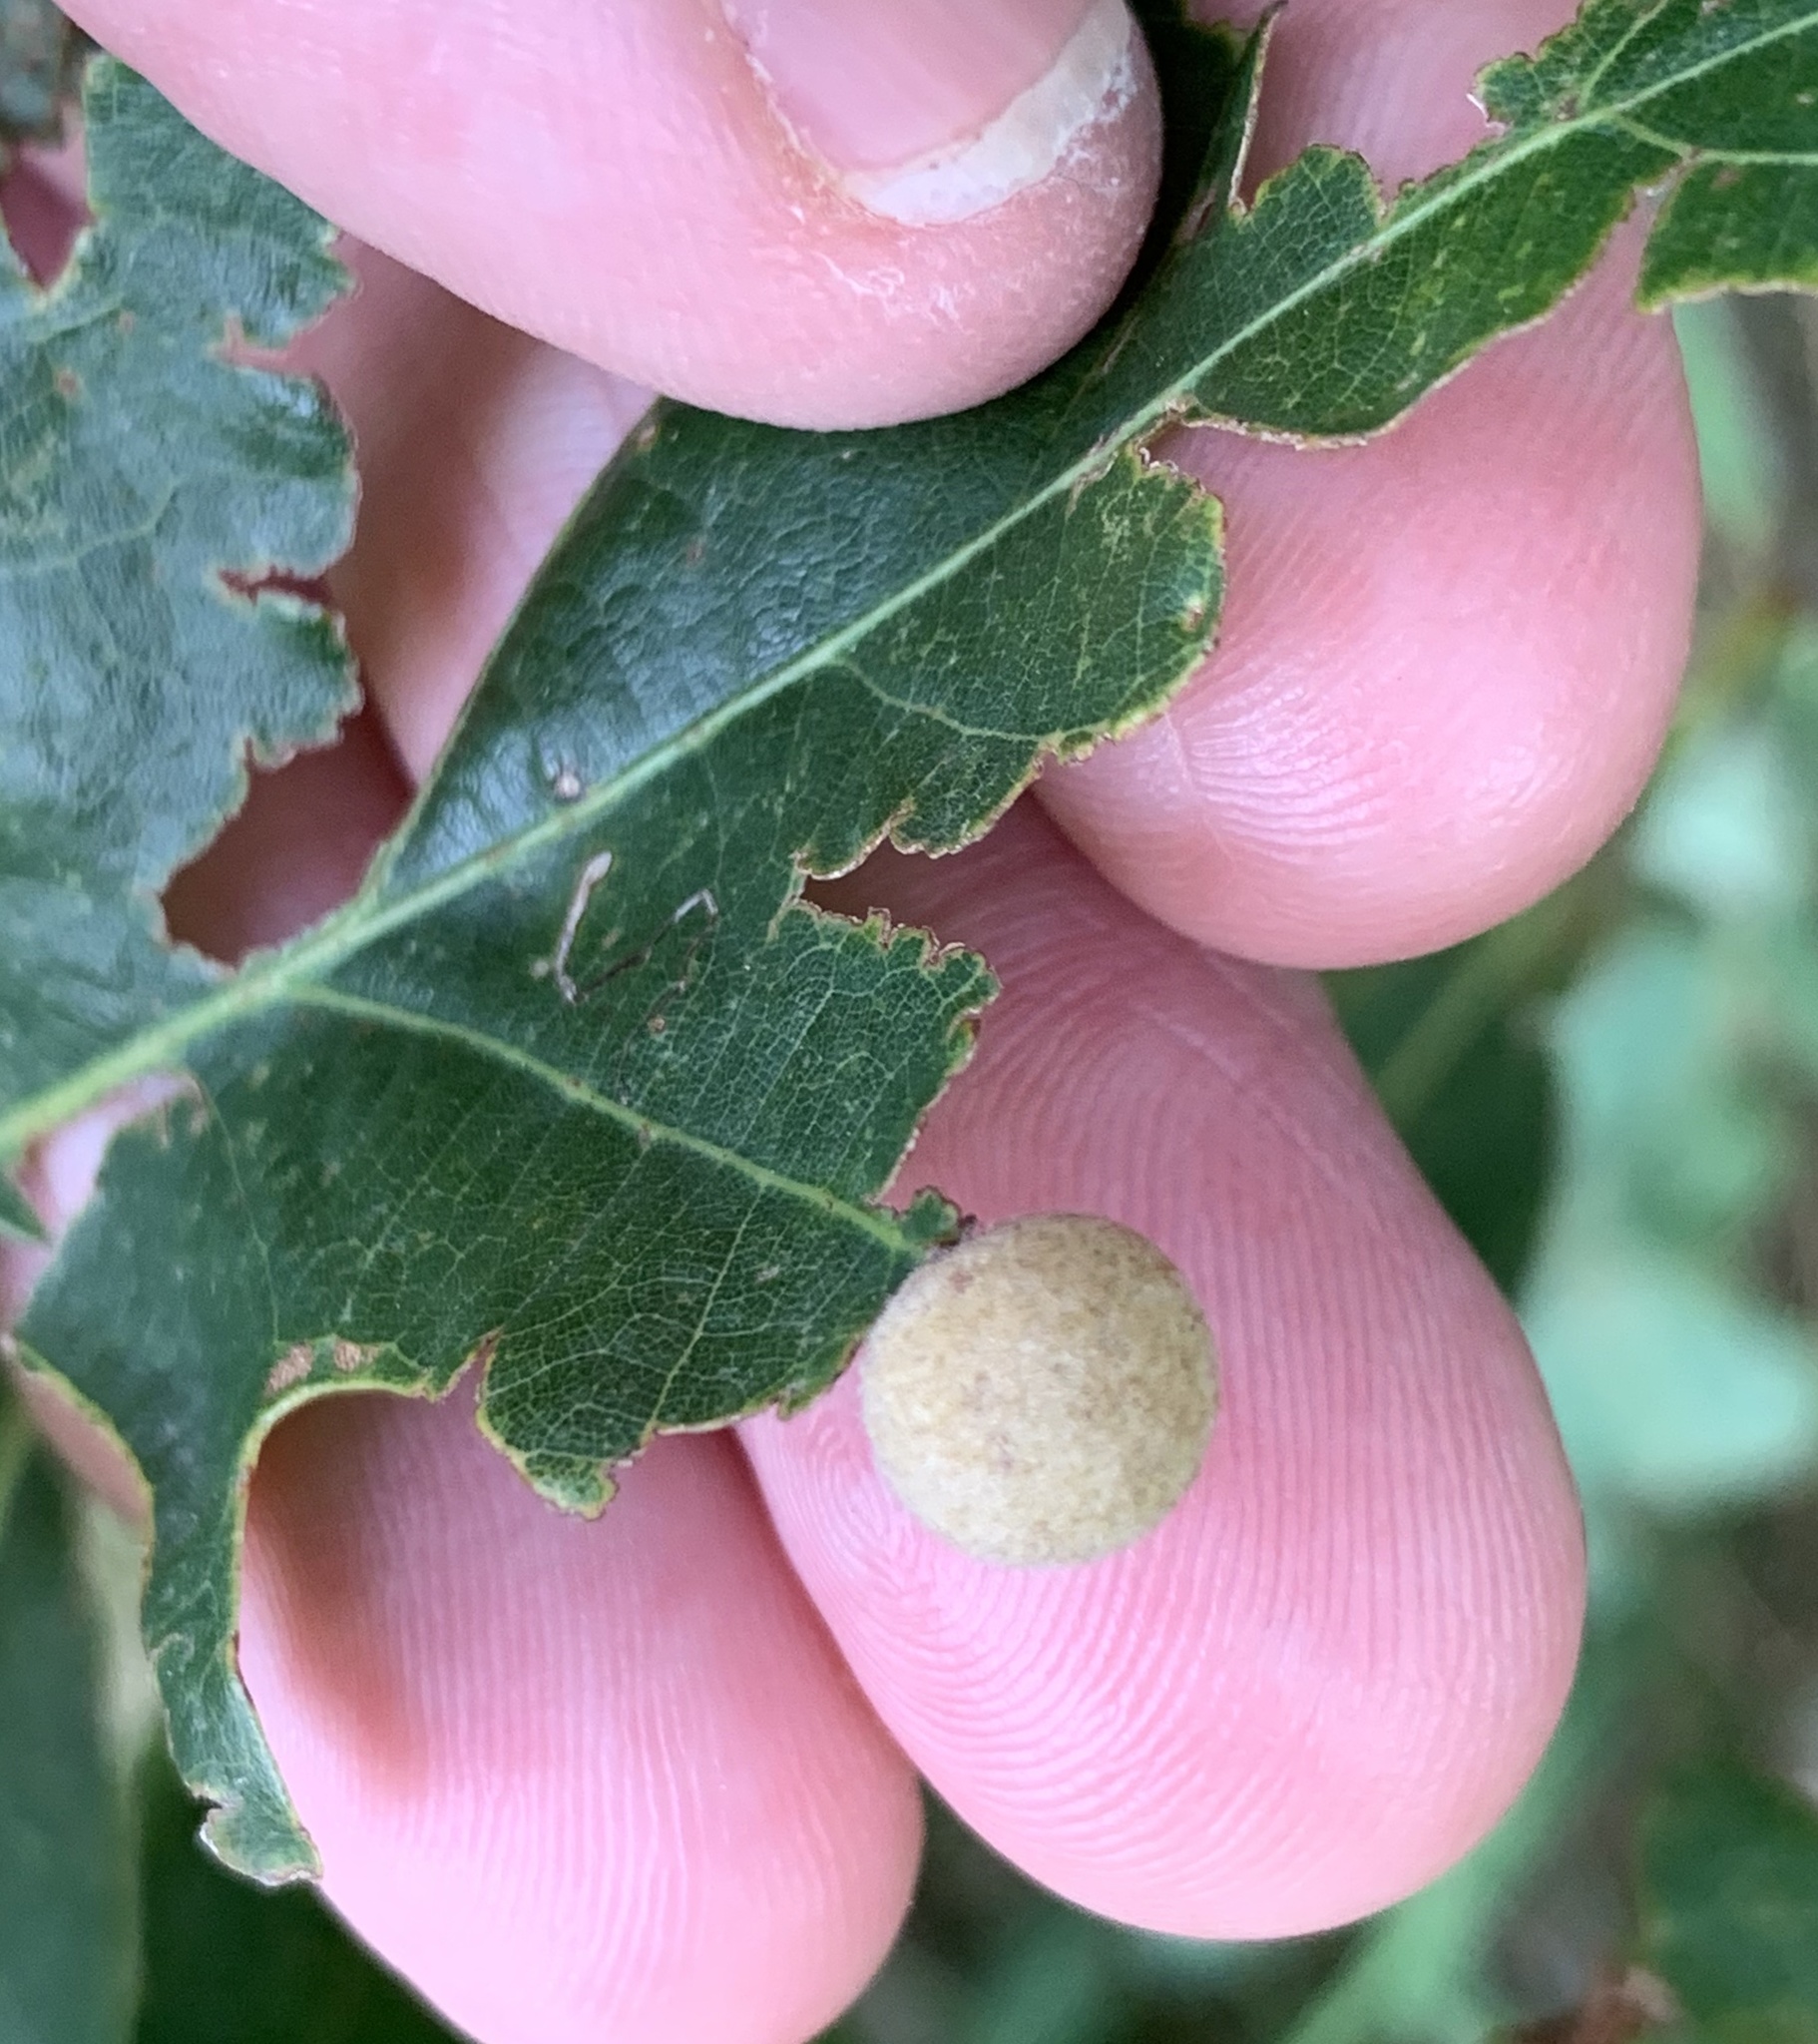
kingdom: Animalia
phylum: Arthropoda
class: Insecta
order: Hymenoptera
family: Cynipidae
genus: Philonix
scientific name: Philonix fulvicollis
